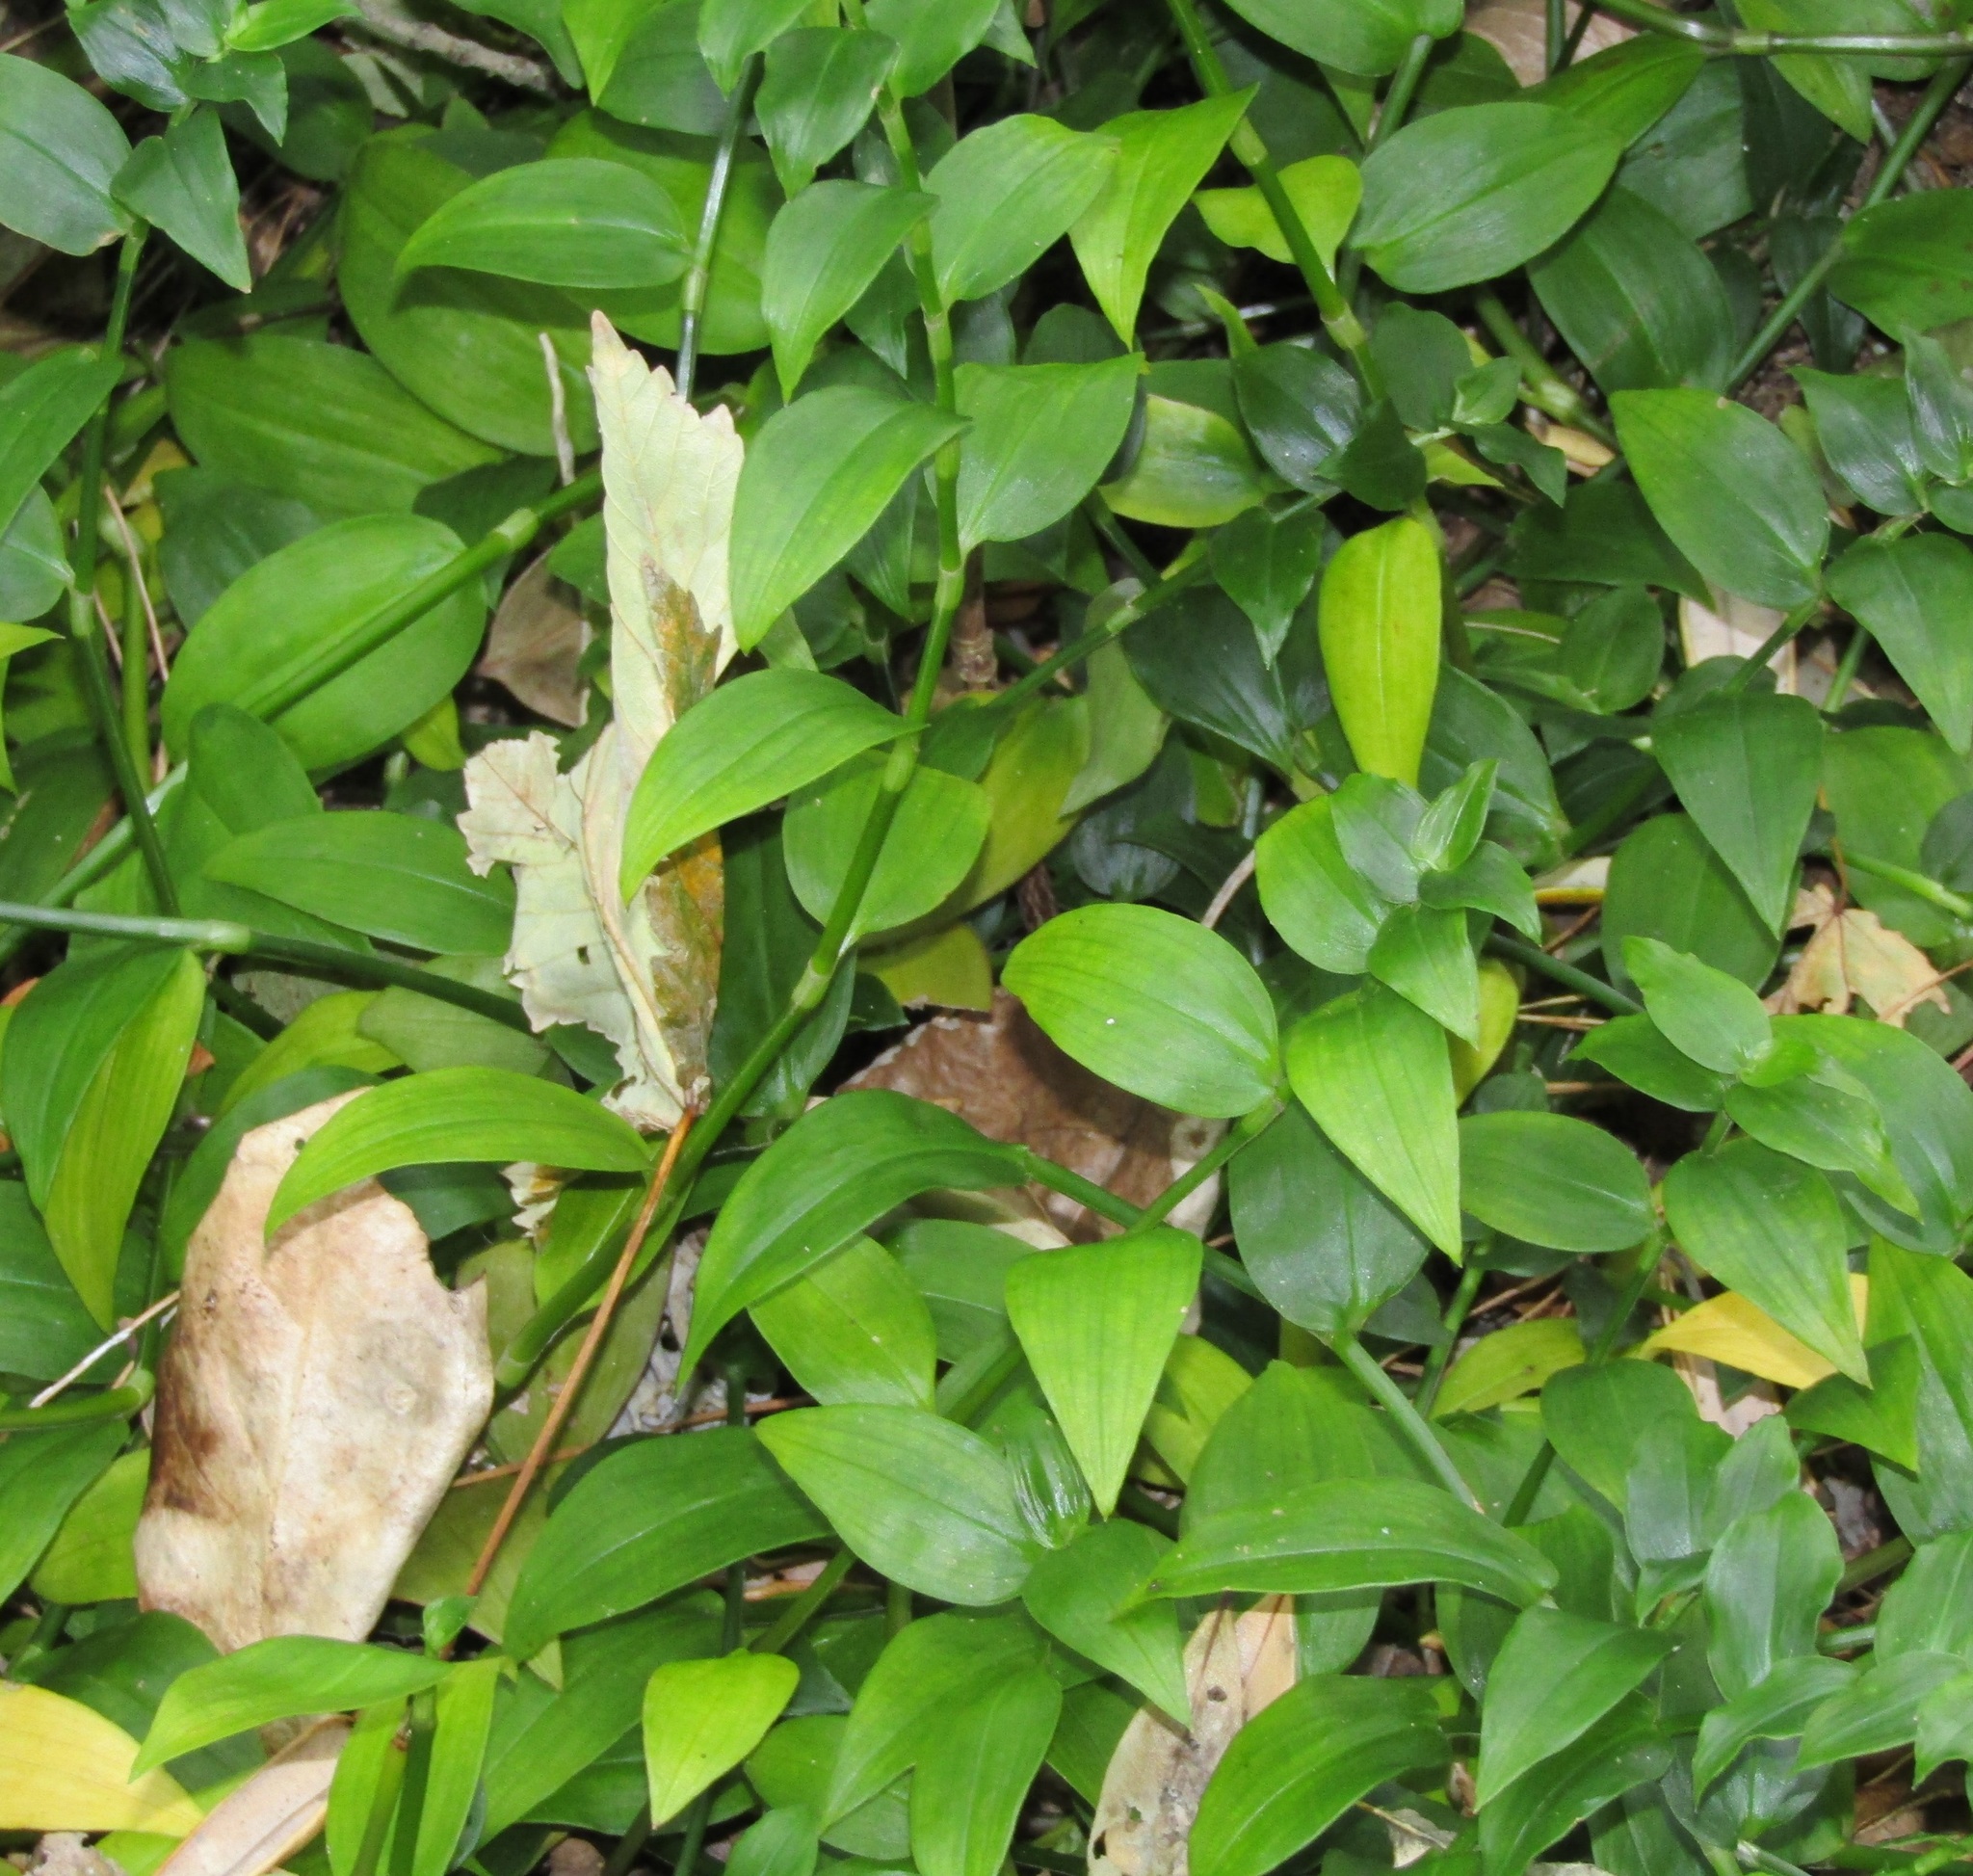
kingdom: Plantae
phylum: Tracheophyta
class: Liliopsida
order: Commelinales
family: Commelinaceae
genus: Tradescantia
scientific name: Tradescantia fluminensis
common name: Wandering-jew
